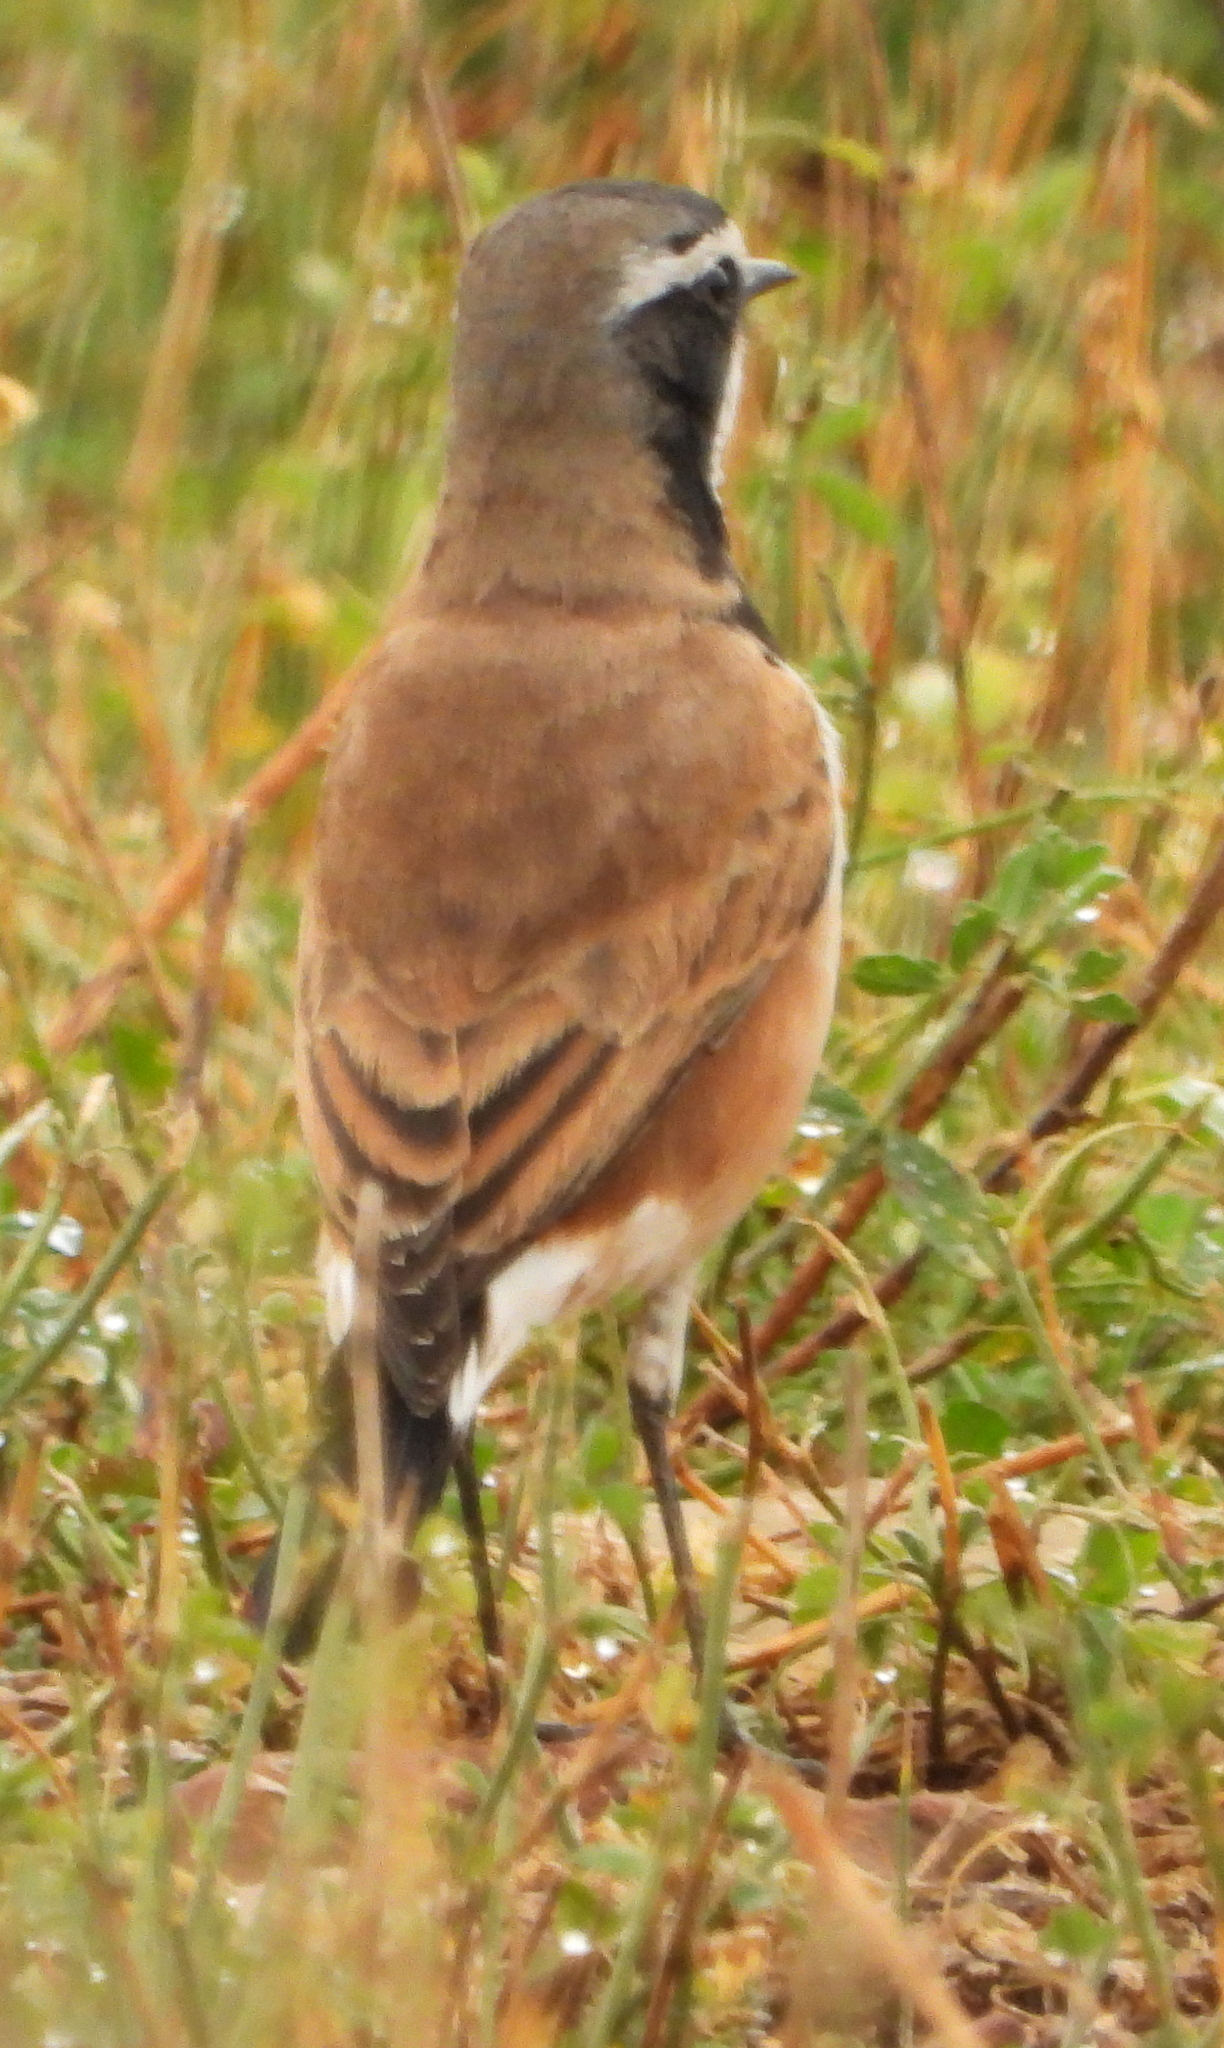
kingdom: Animalia
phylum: Chordata
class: Aves
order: Passeriformes
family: Muscicapidae
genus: Oenanthe
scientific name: Oenanthe pileata
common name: Capped wheatear
